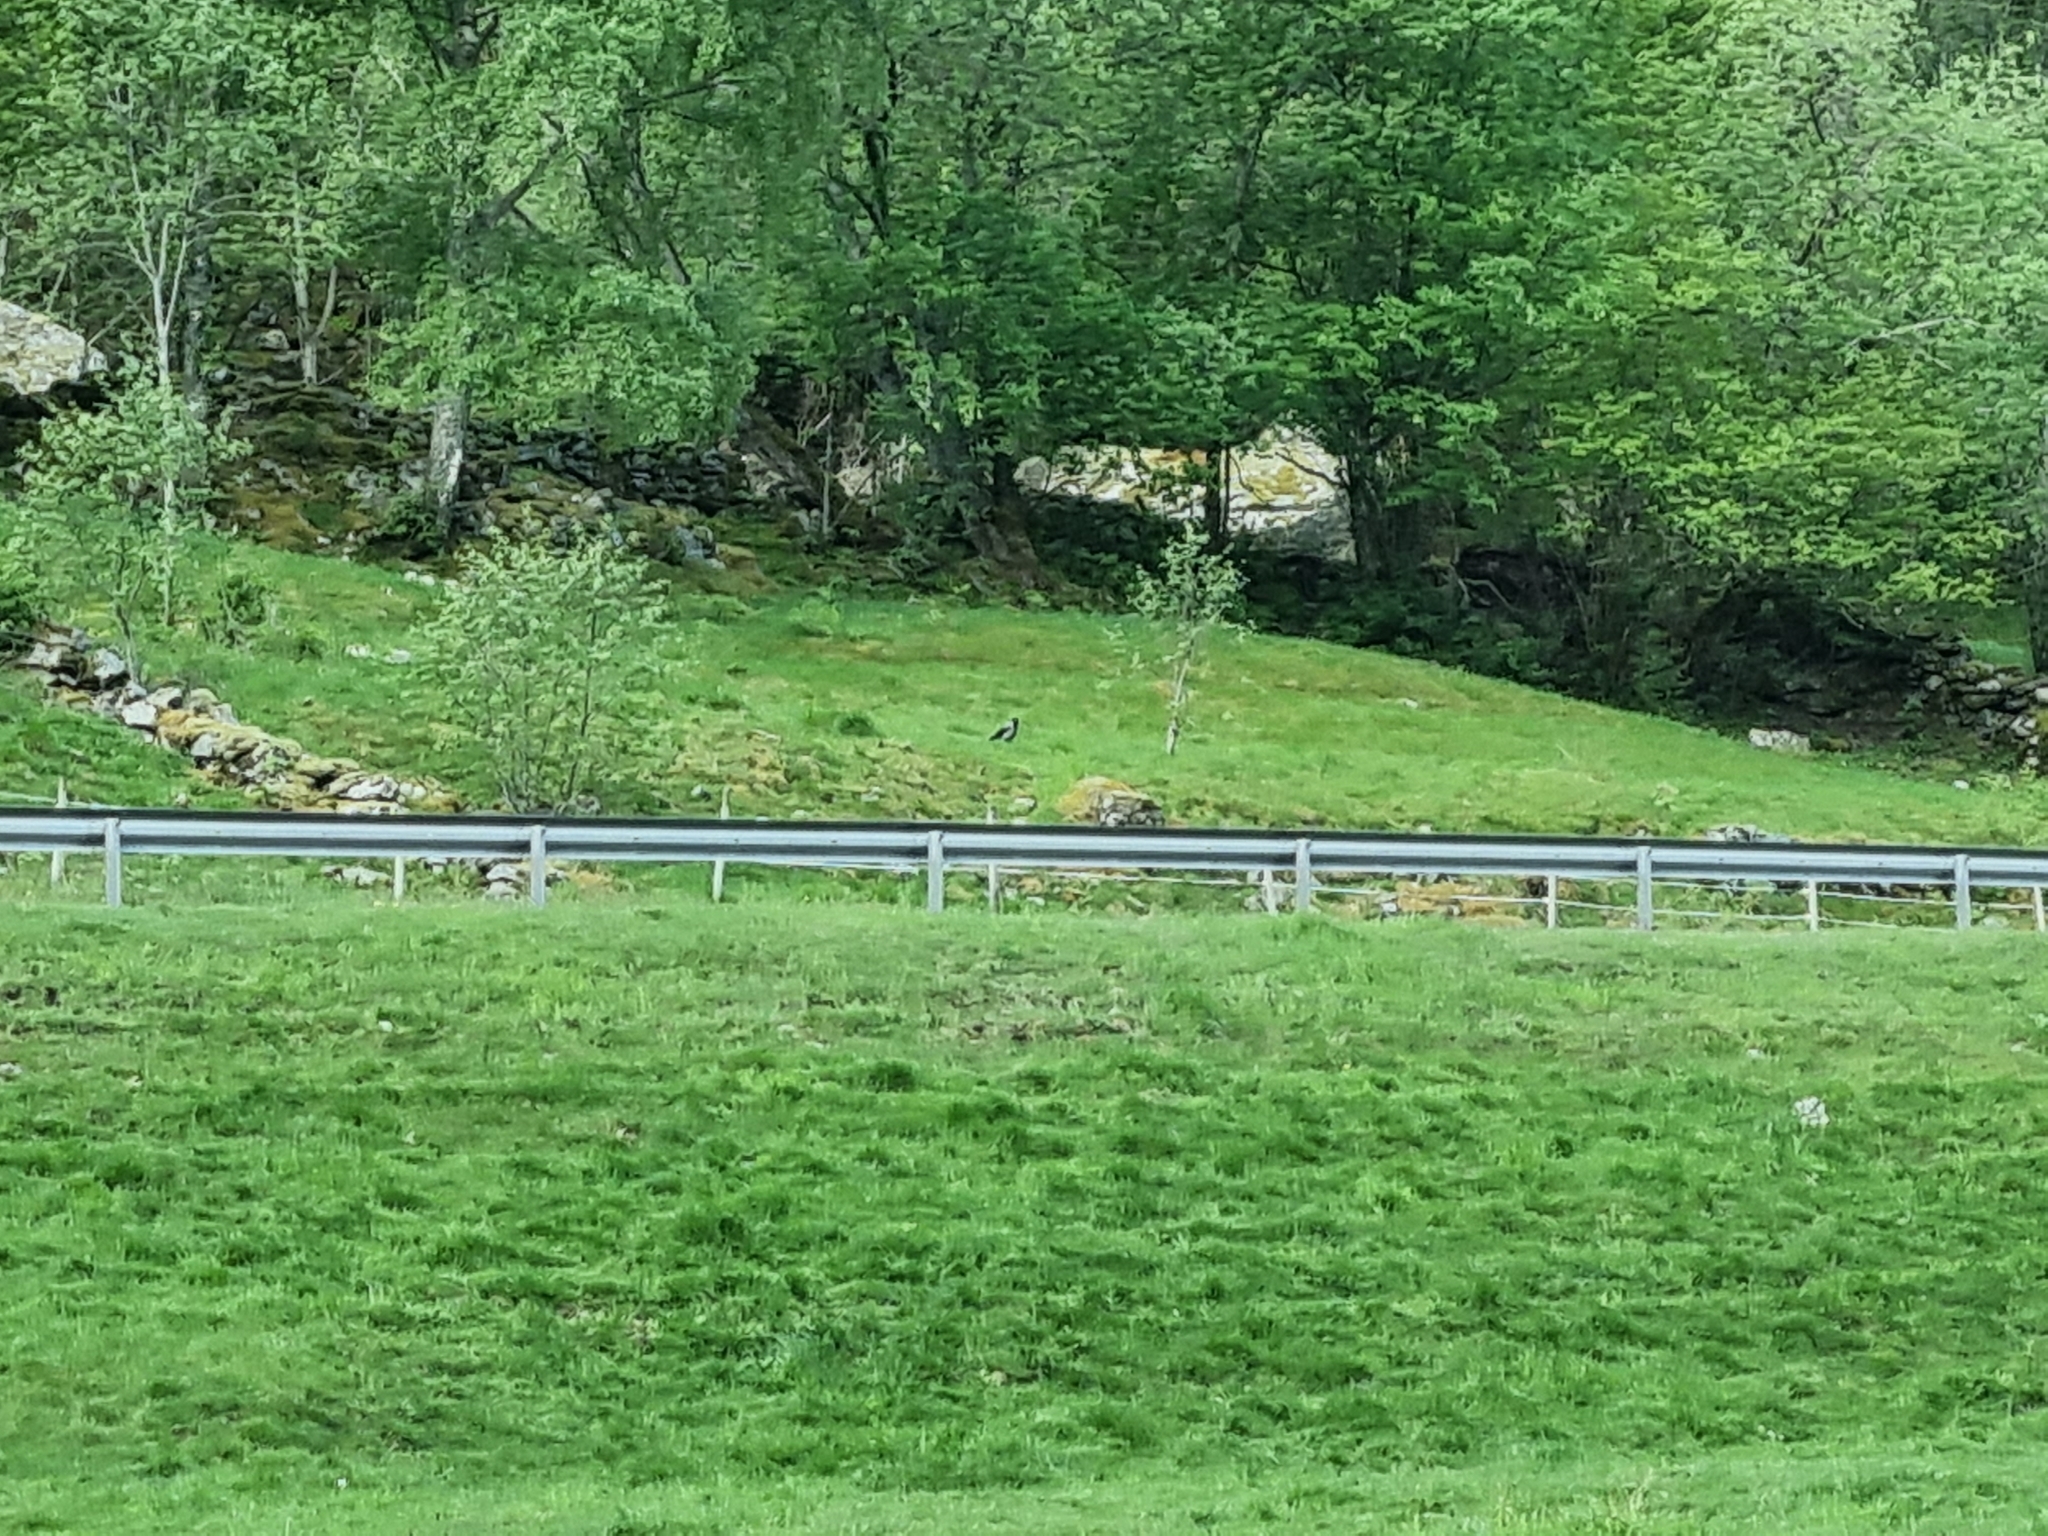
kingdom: Animalia
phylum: Chordata
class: Aves
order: Passeriformes
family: Corvidae
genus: Corvus
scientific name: Corvus cornix
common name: Hooded crow
